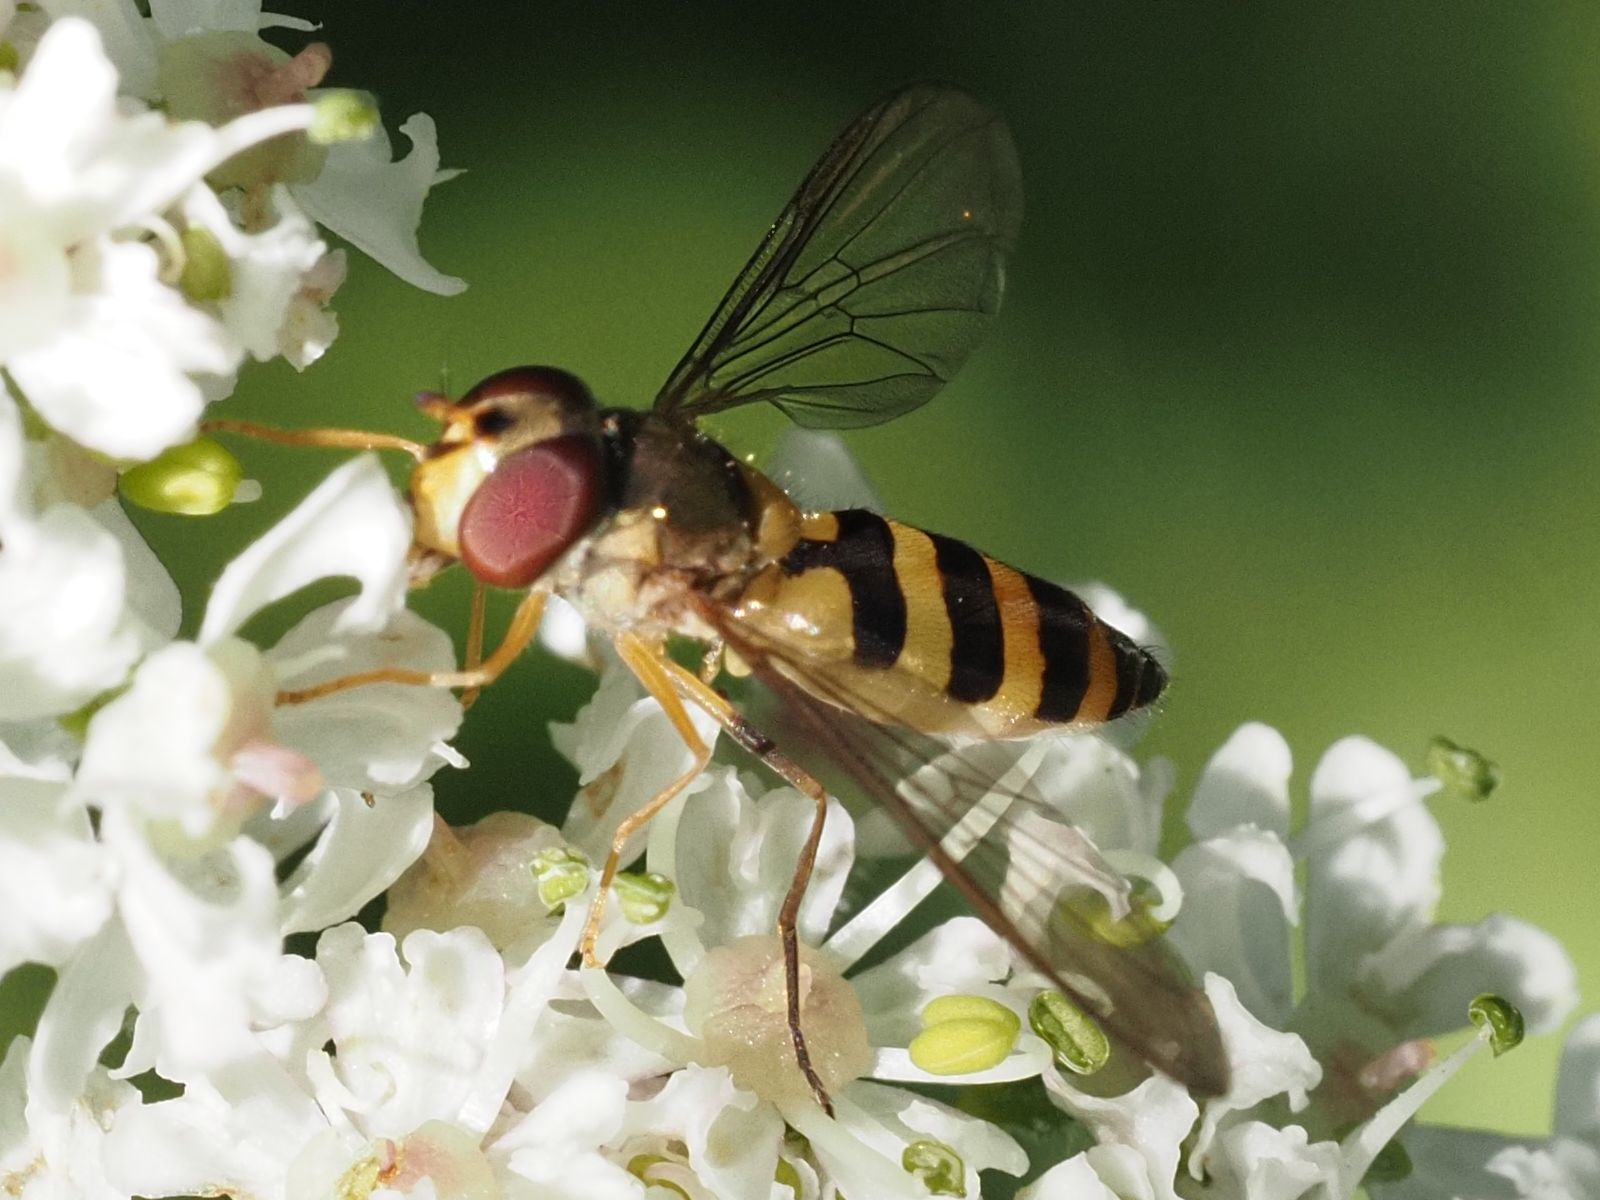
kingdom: Animalia
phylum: Arthropoda
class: Insecta
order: Diptera
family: Syrphidae
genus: Meliscaeva
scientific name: Meliscaeva cinctella
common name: American thintail fly
